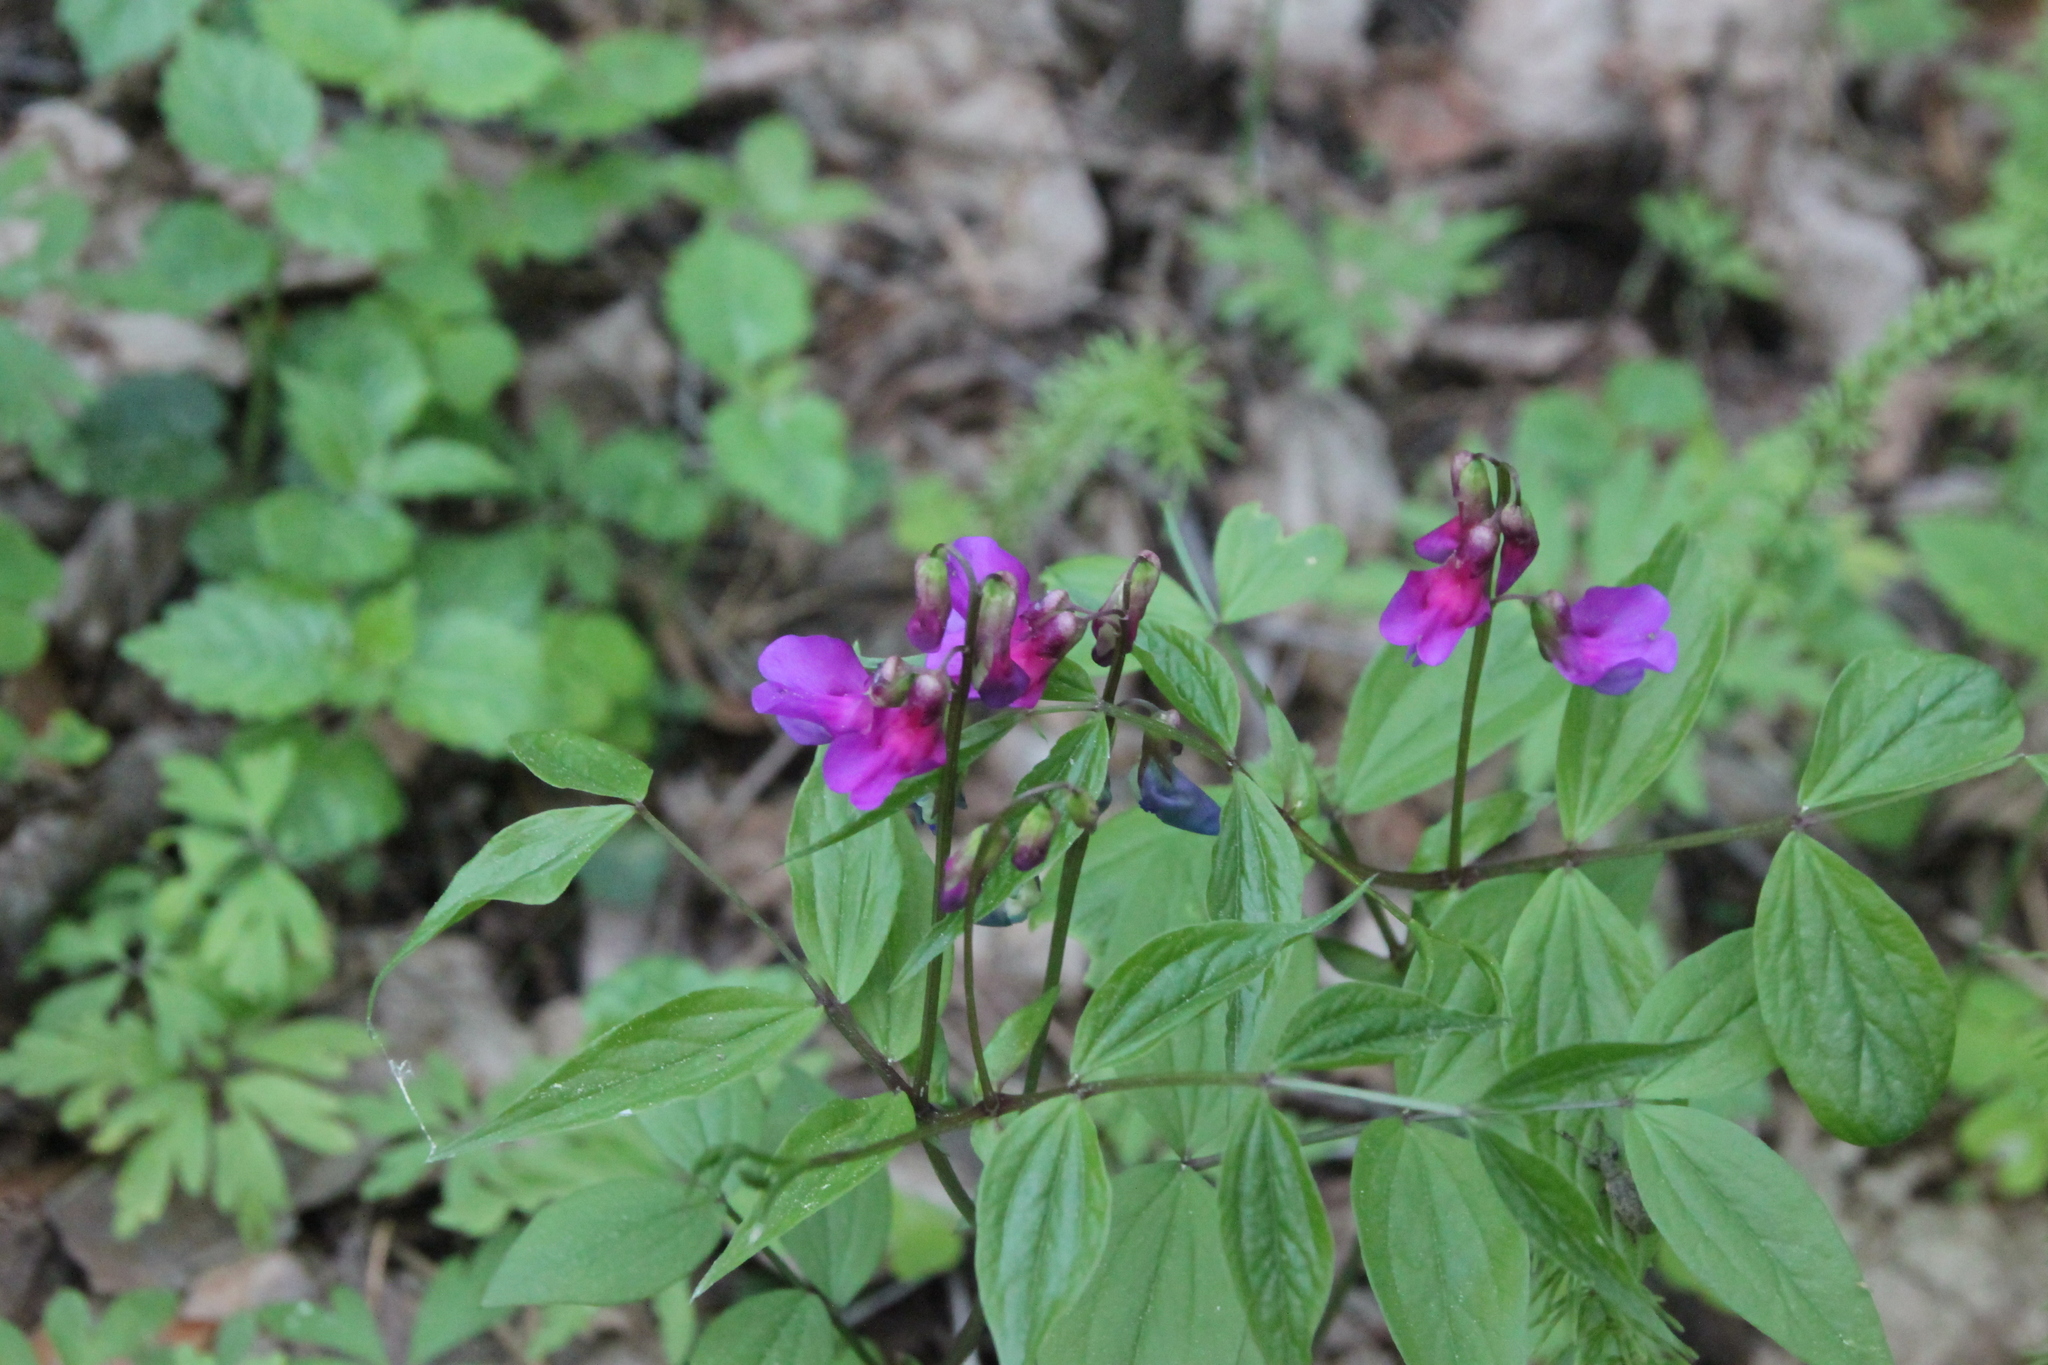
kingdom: Plantae
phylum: Tracheophyta
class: Magnoliopsida
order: Fabales
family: Fabaceae
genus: Lathyrus
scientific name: Lathyrus vernus
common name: Spring pea
